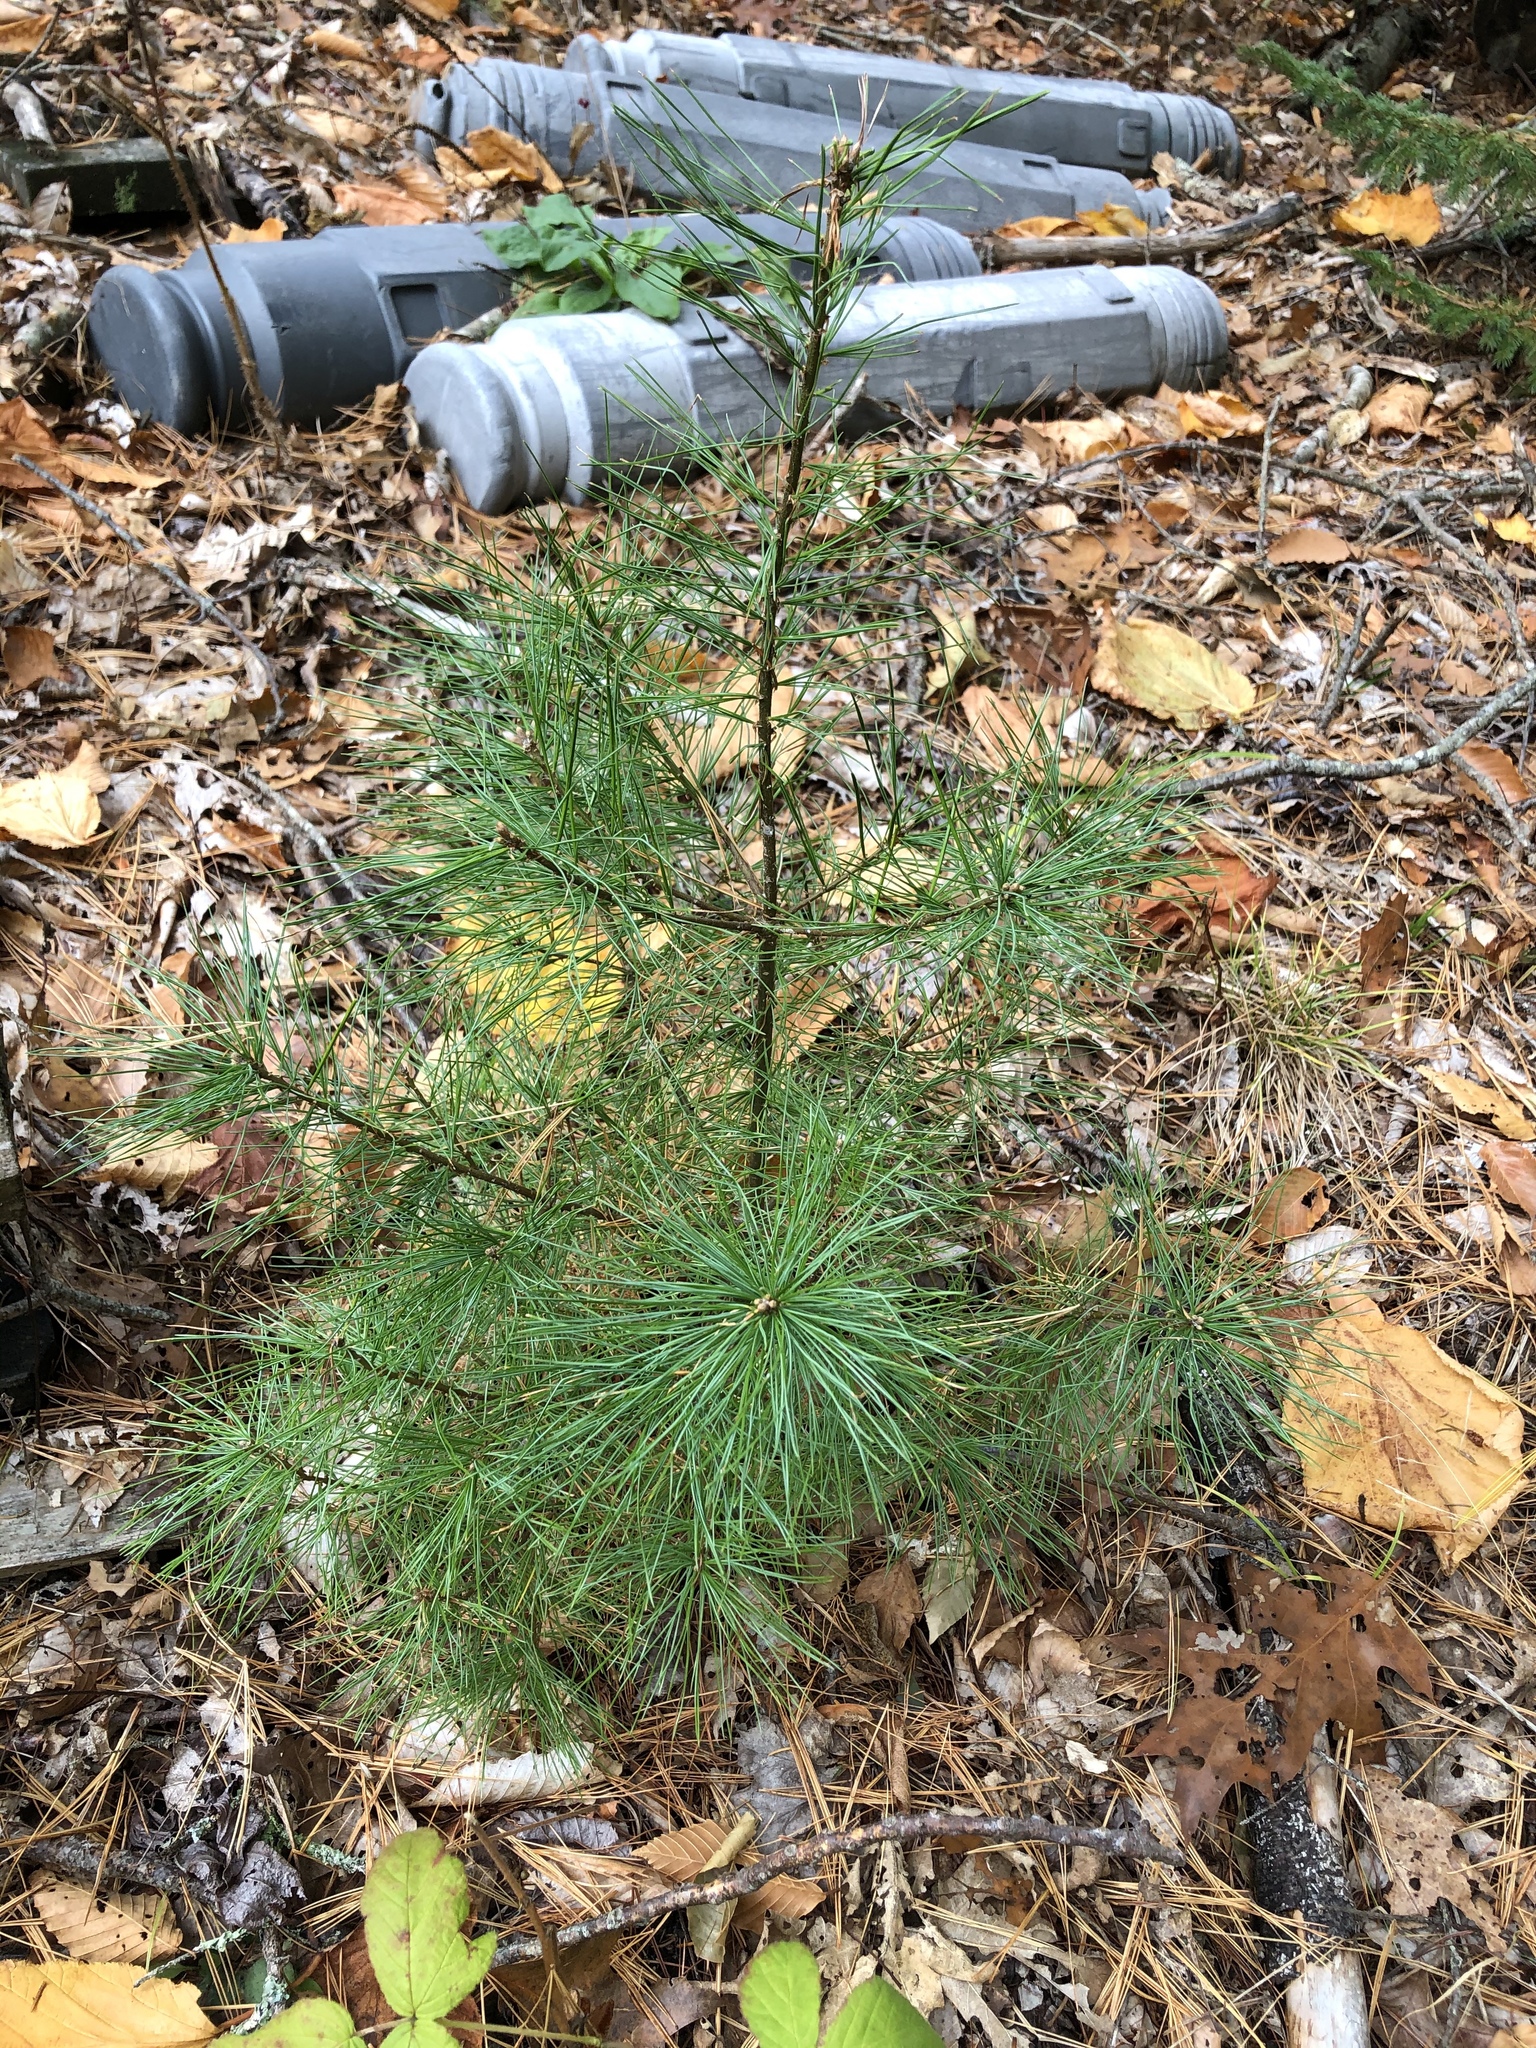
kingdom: Plantae
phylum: Tracheophyta
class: Pinopsida
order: Pinales
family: Pinaceae
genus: Pinus
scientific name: Pinus strobus
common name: Weymouth pine
